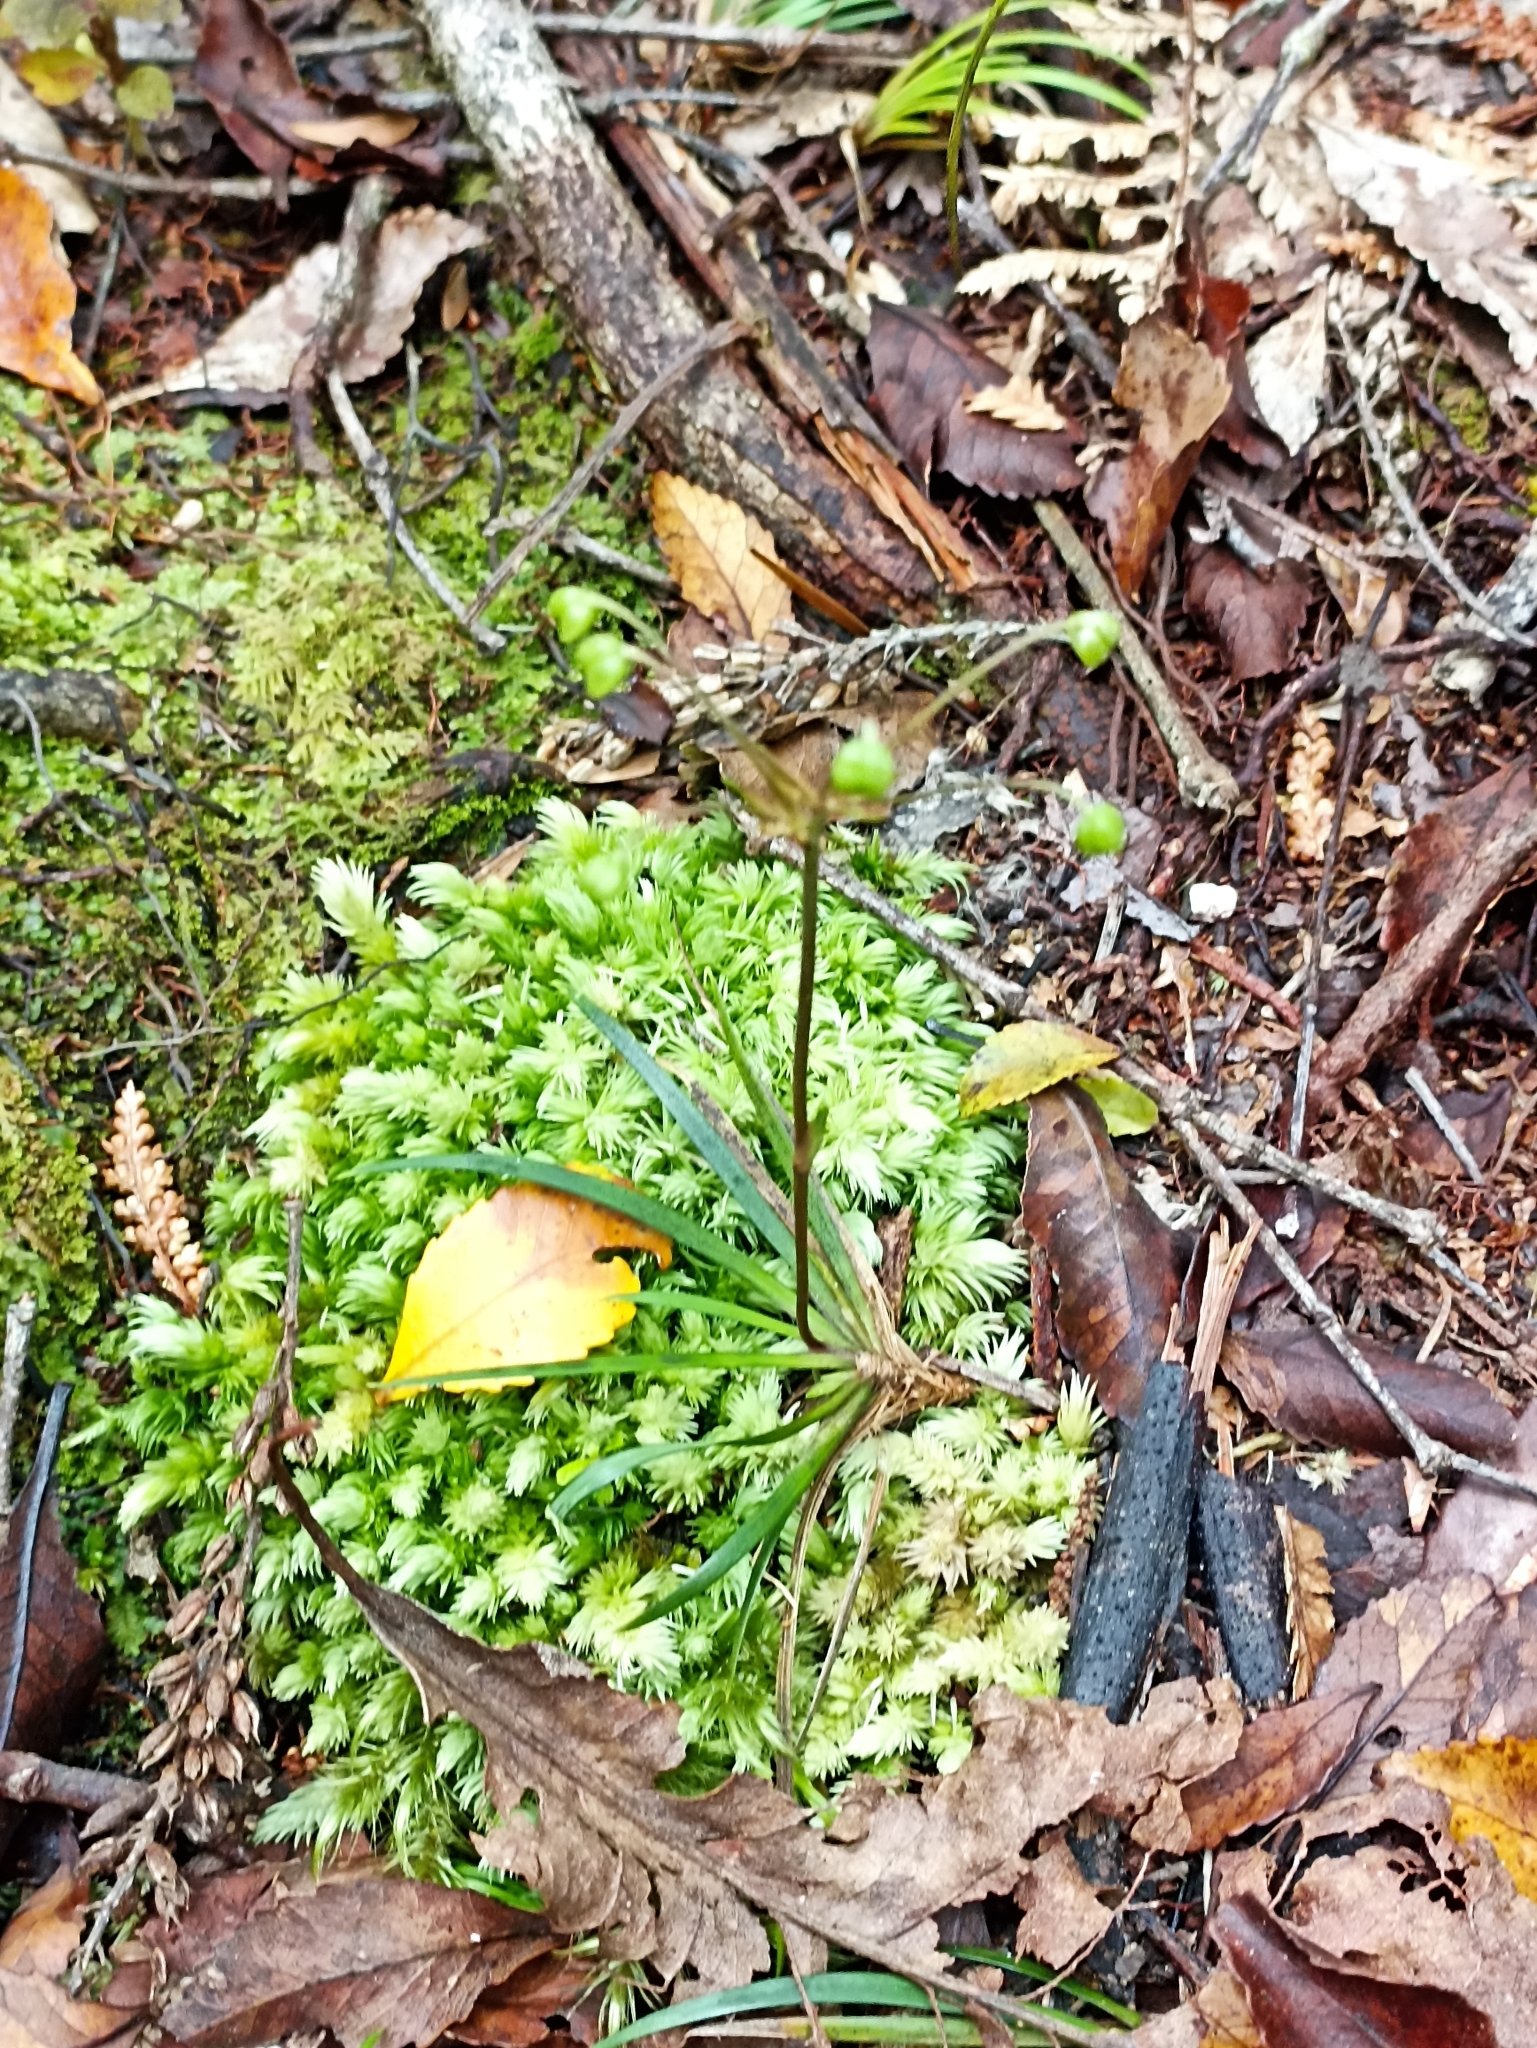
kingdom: Plantae
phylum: Tracheophyta
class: Liliopsida
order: Asparagales
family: Iridaceae
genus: Libertia
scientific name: Libertia micrantha
